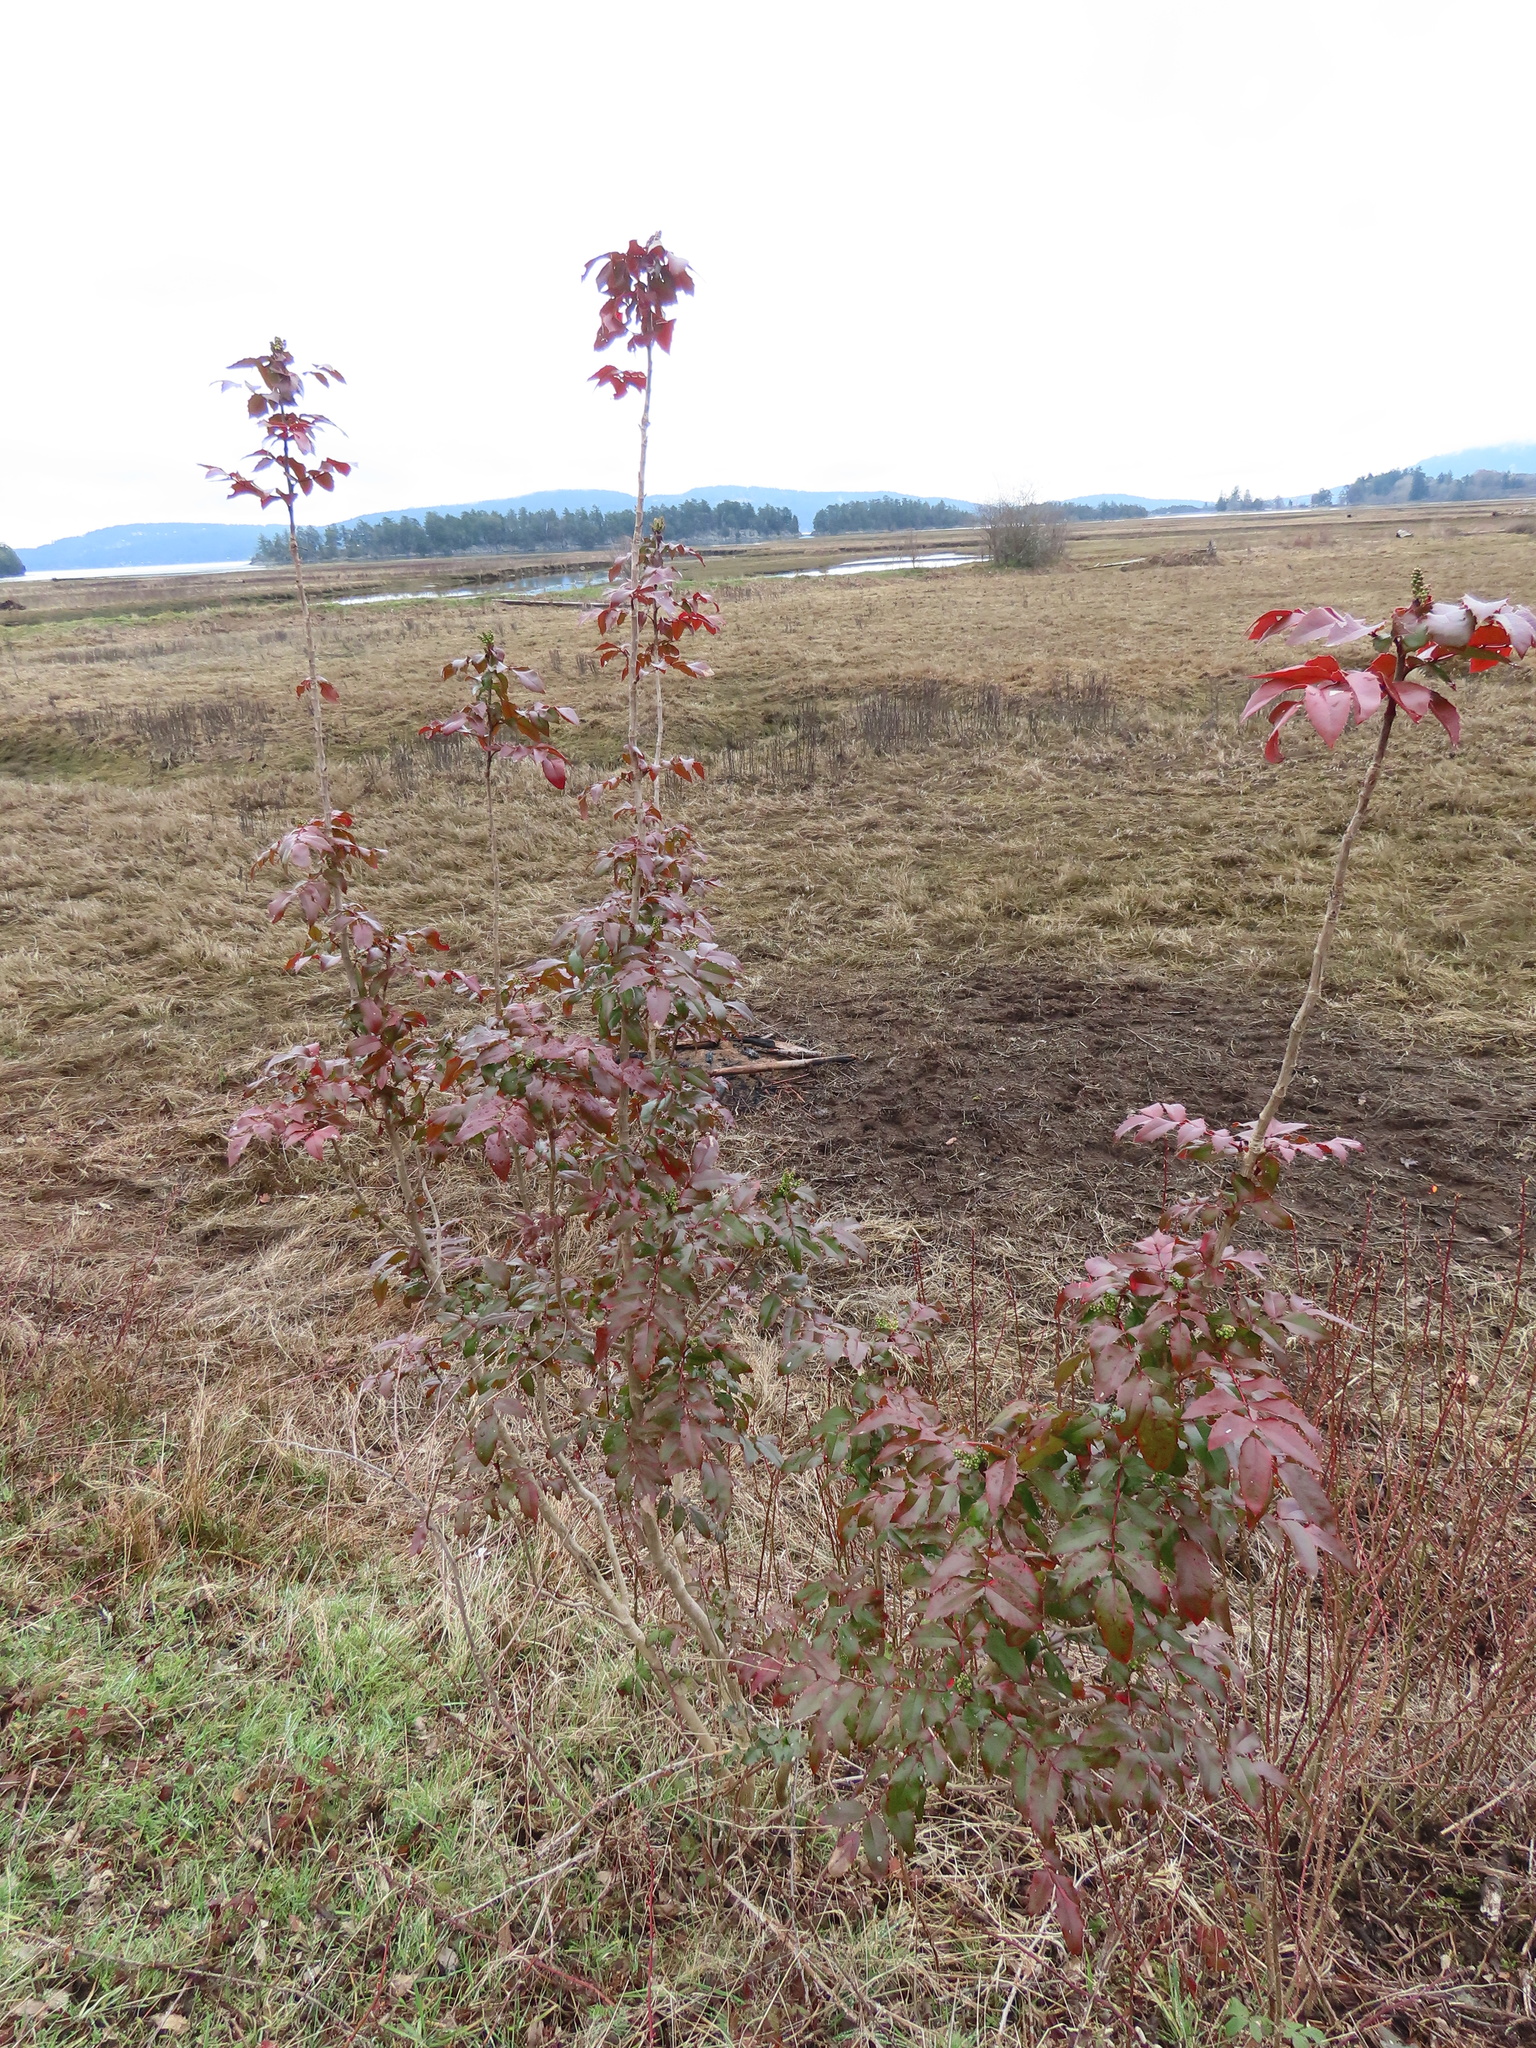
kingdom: Plantae
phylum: Tracheophyta
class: Magnoliopsida
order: Ranunculales
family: Berberidaceae
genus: Mahonia
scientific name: Mahonia aquifolium
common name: Oregon-grape
